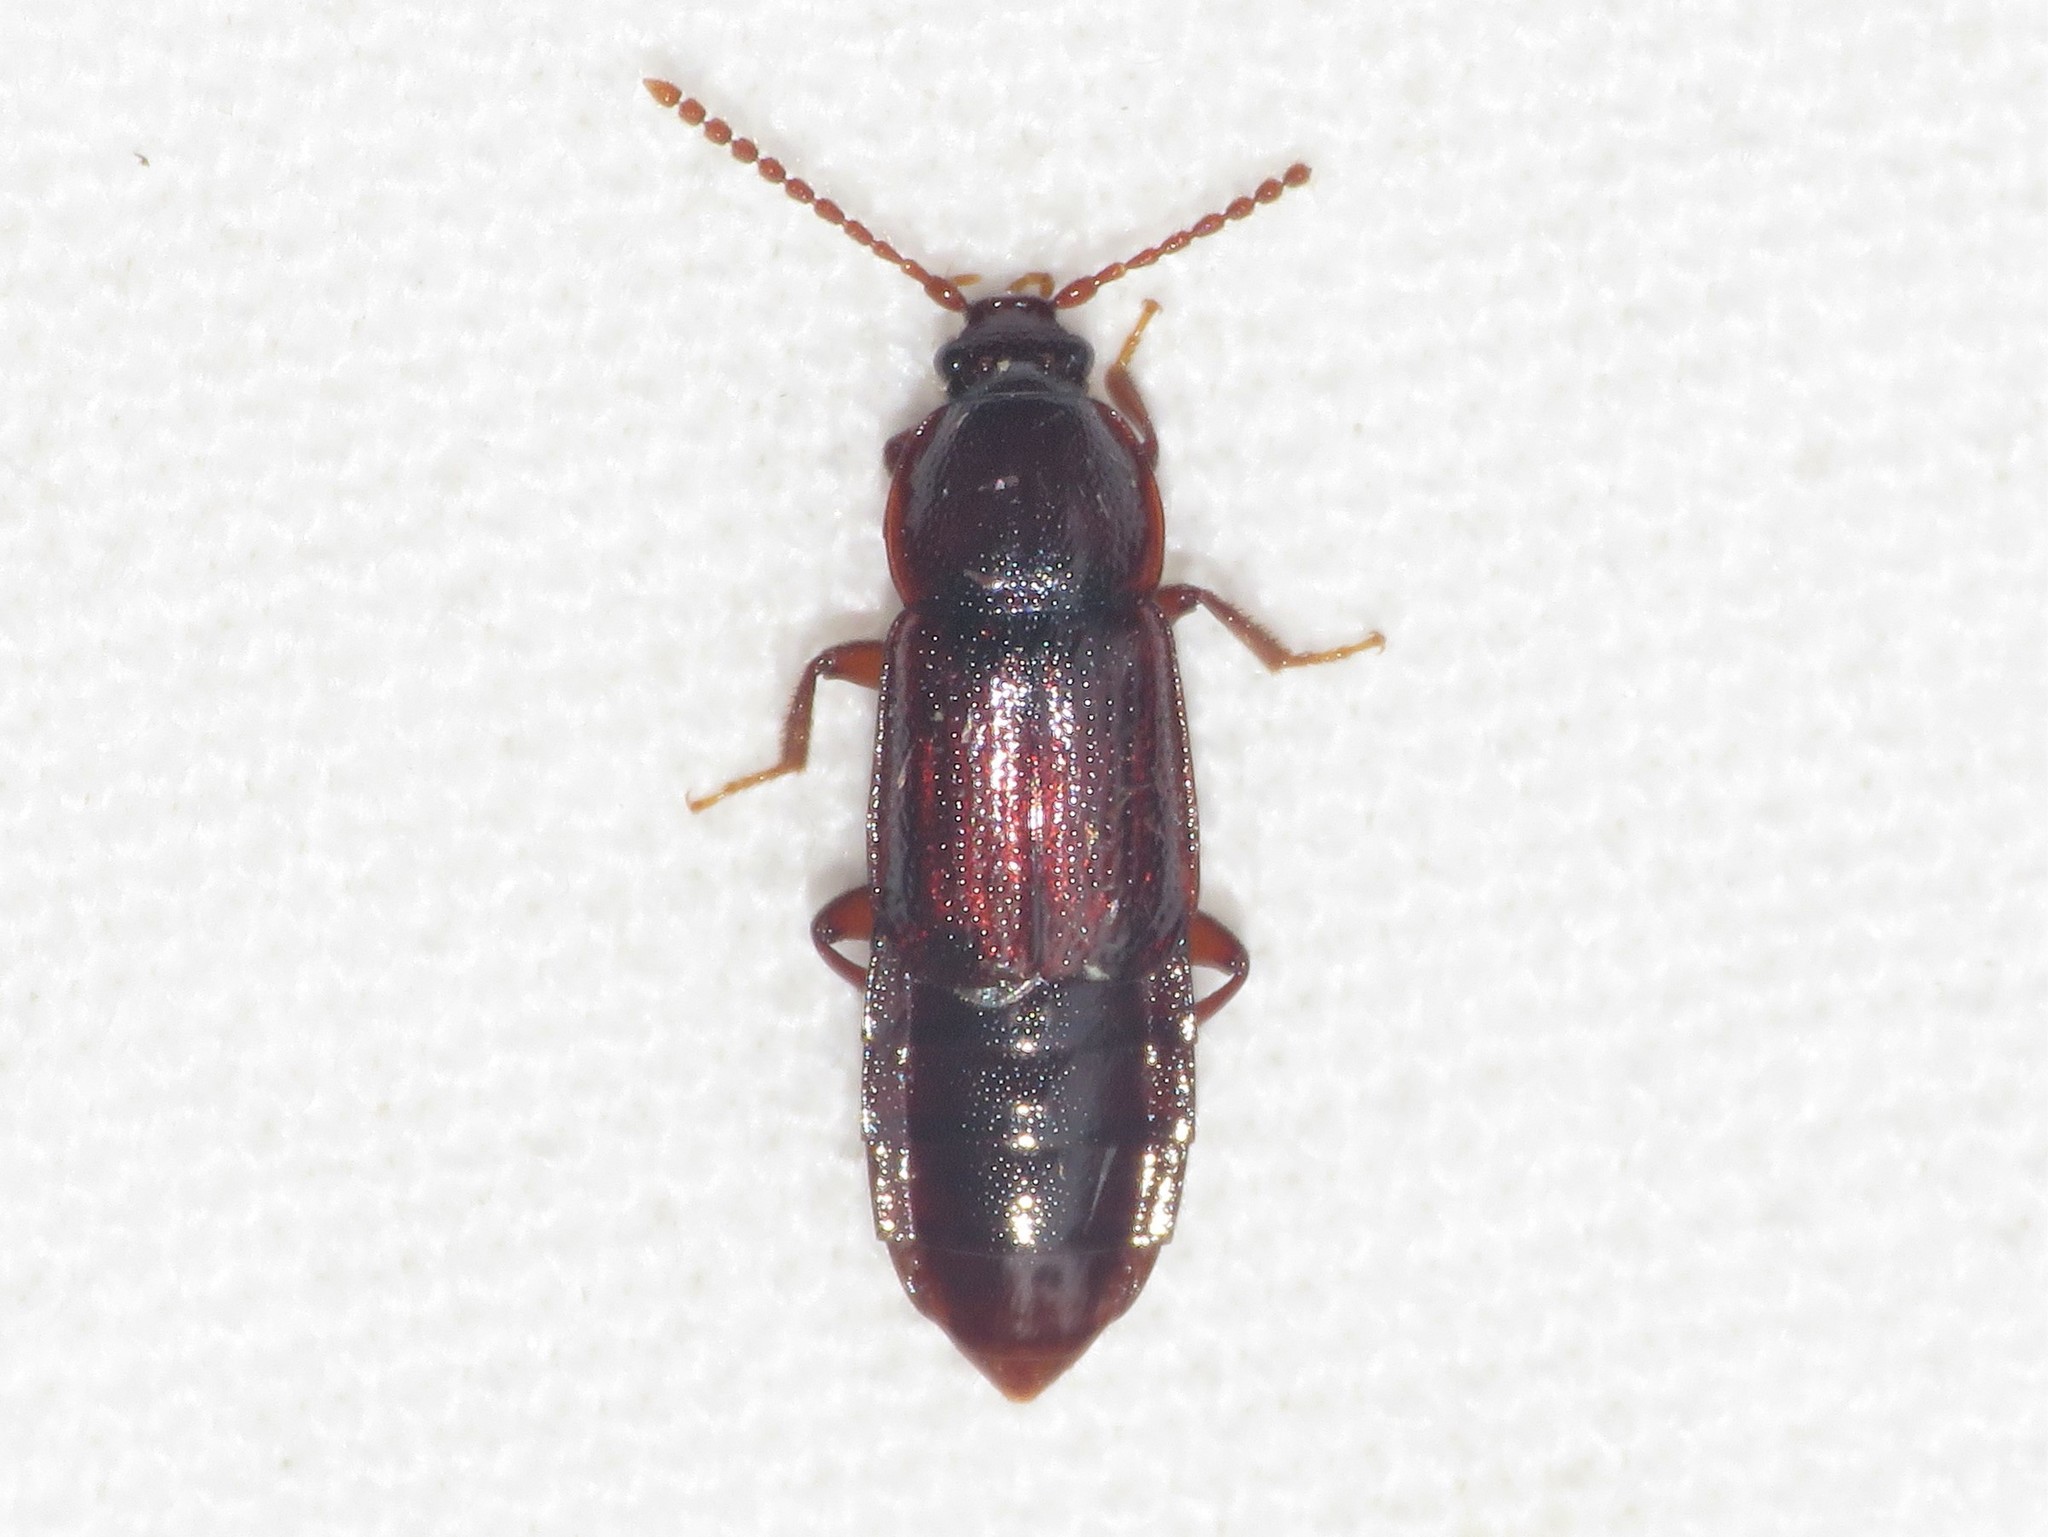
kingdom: Animalia
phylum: Arthropoda
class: Insecta
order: Coleoptera
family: Staphylinidae
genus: Acidota
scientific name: Acidota crenata
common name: Staph beetle
